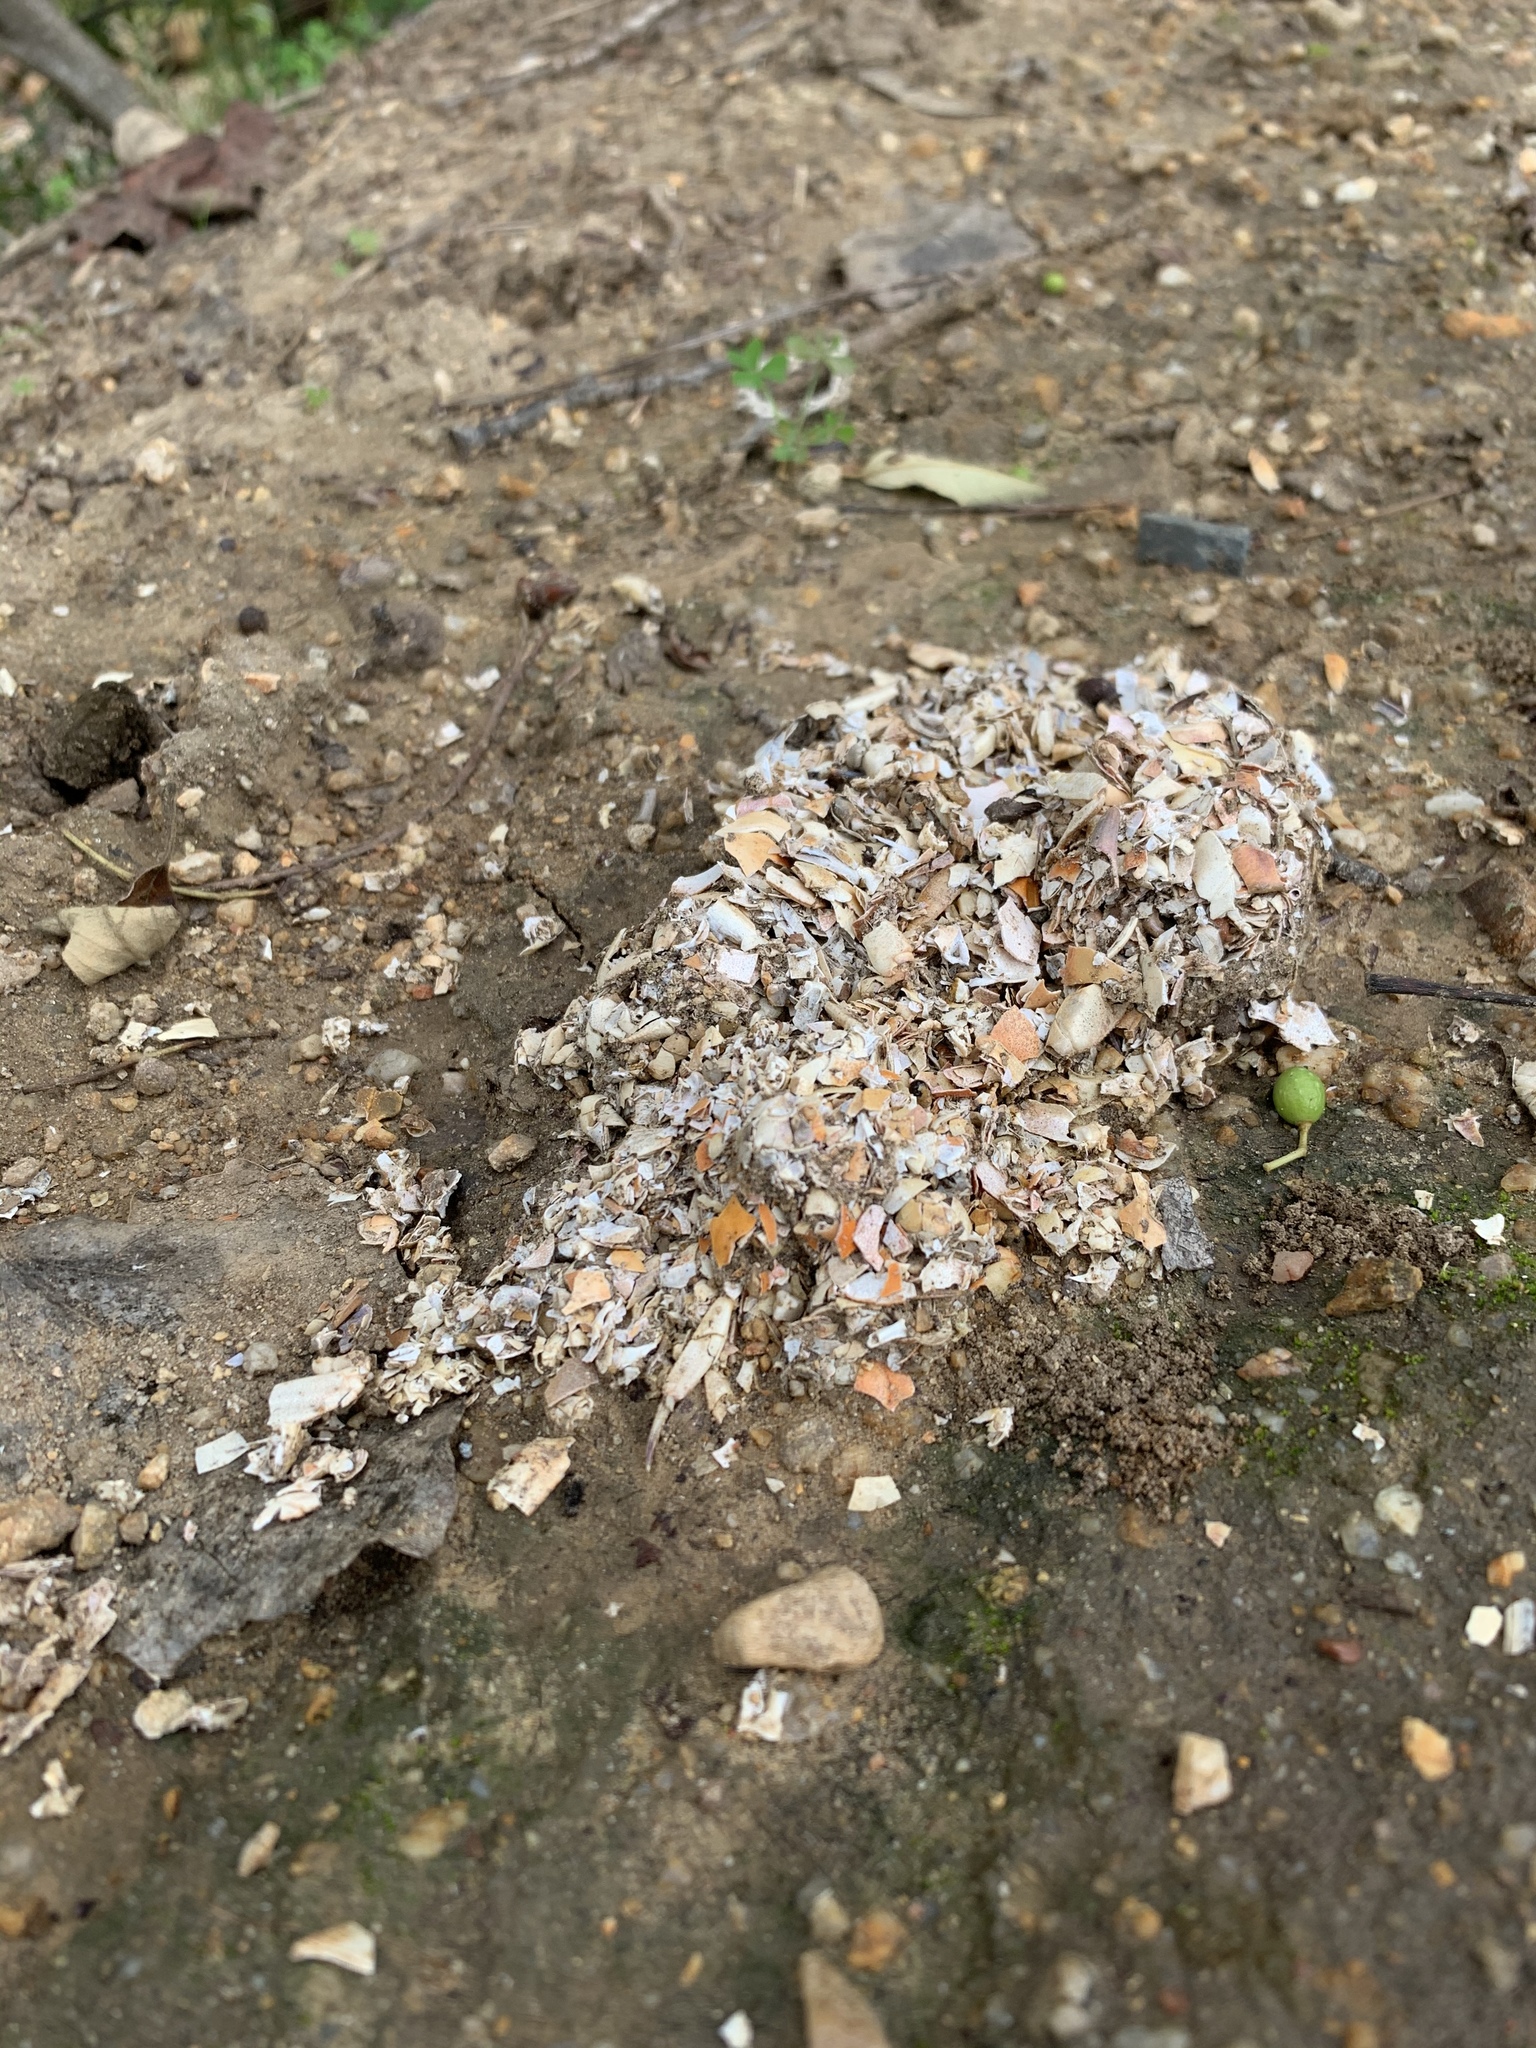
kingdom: Animalia
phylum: Chordata
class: Mammalia
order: Carnivora
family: Mustelidae
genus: Aonyx
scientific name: Aonyx capensis
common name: African clawless otter
